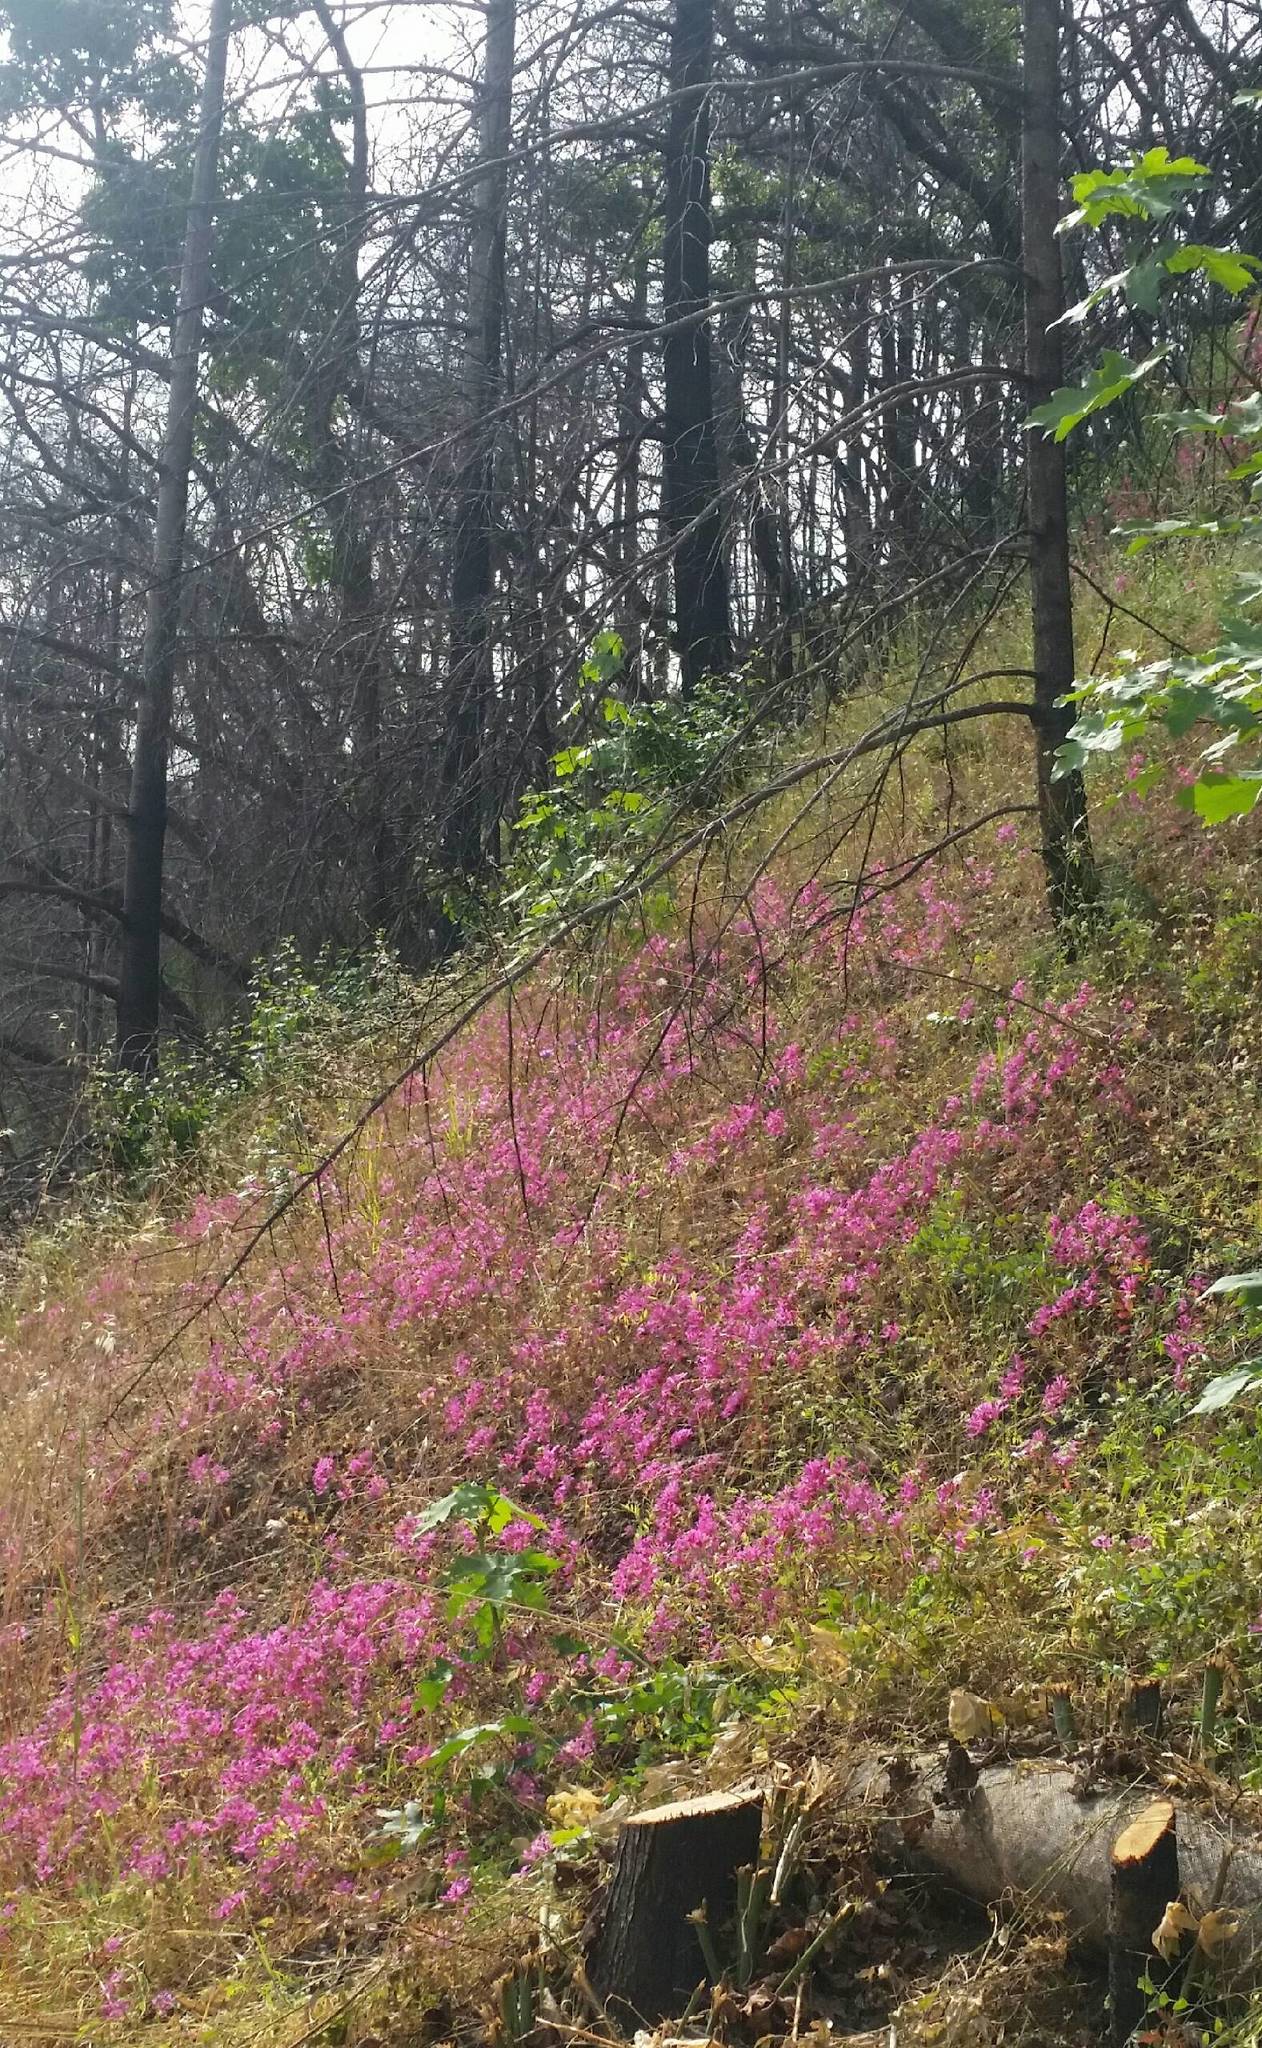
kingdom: Plantae
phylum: Tracheophyta
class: Magnoliopsida
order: Myrtales
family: Onagraceae
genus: Clarkia
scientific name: Clarkia concinna
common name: Red-ribbons
